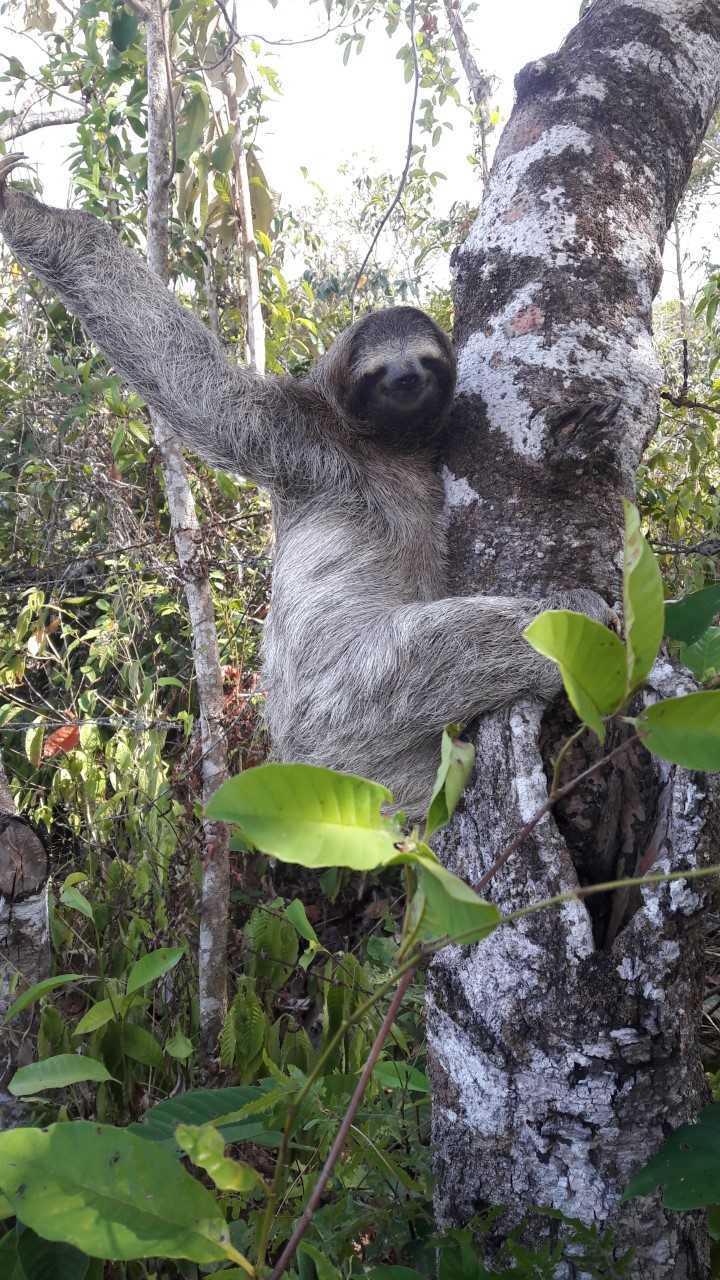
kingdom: Animalia
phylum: Chordata
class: Mammalia
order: Pilosa
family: Bradypodidae
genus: Bradypus
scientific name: Bradypus variegatus
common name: Brown-throated three-toed sloth
